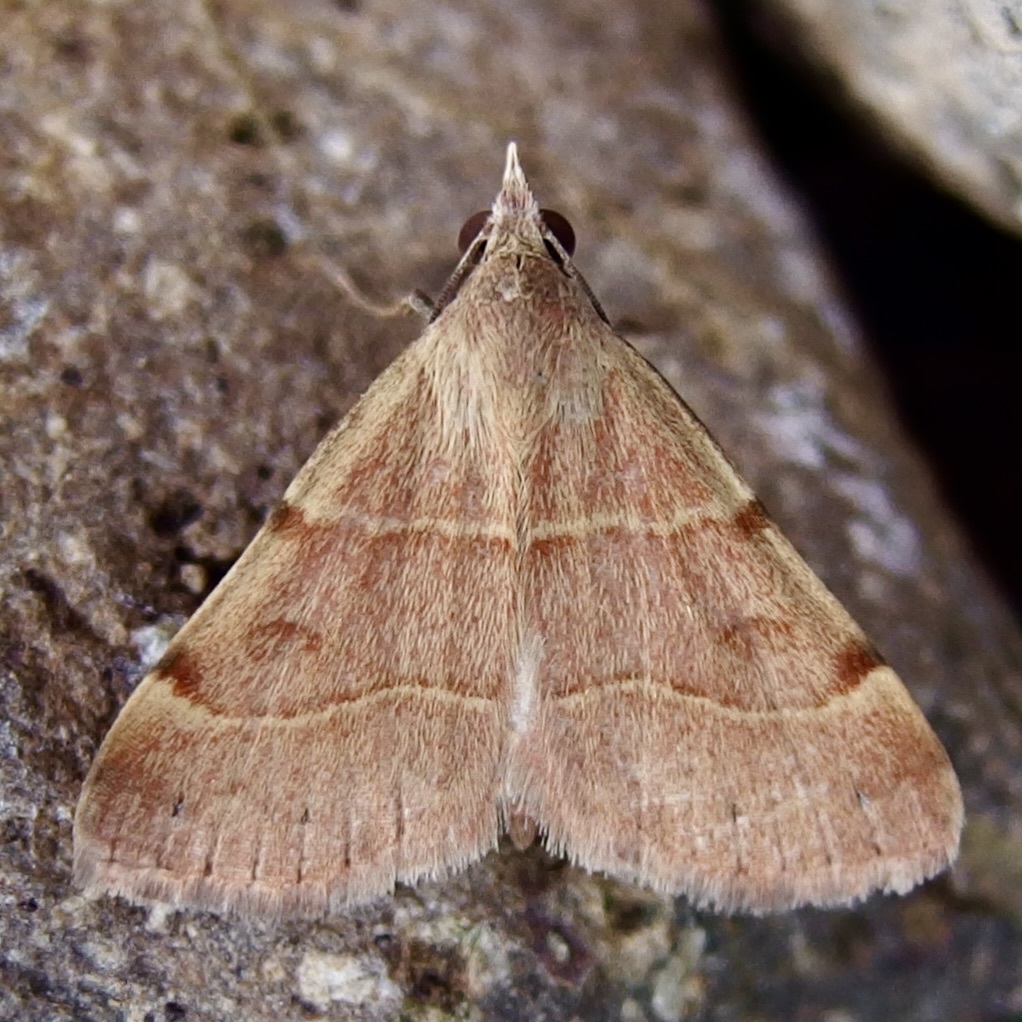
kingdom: Animalia
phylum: Arthropoda
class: Insecta
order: Lepidoptera
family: Erebidae
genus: Hemeroplanis
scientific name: Hemeroplanis rectalis
